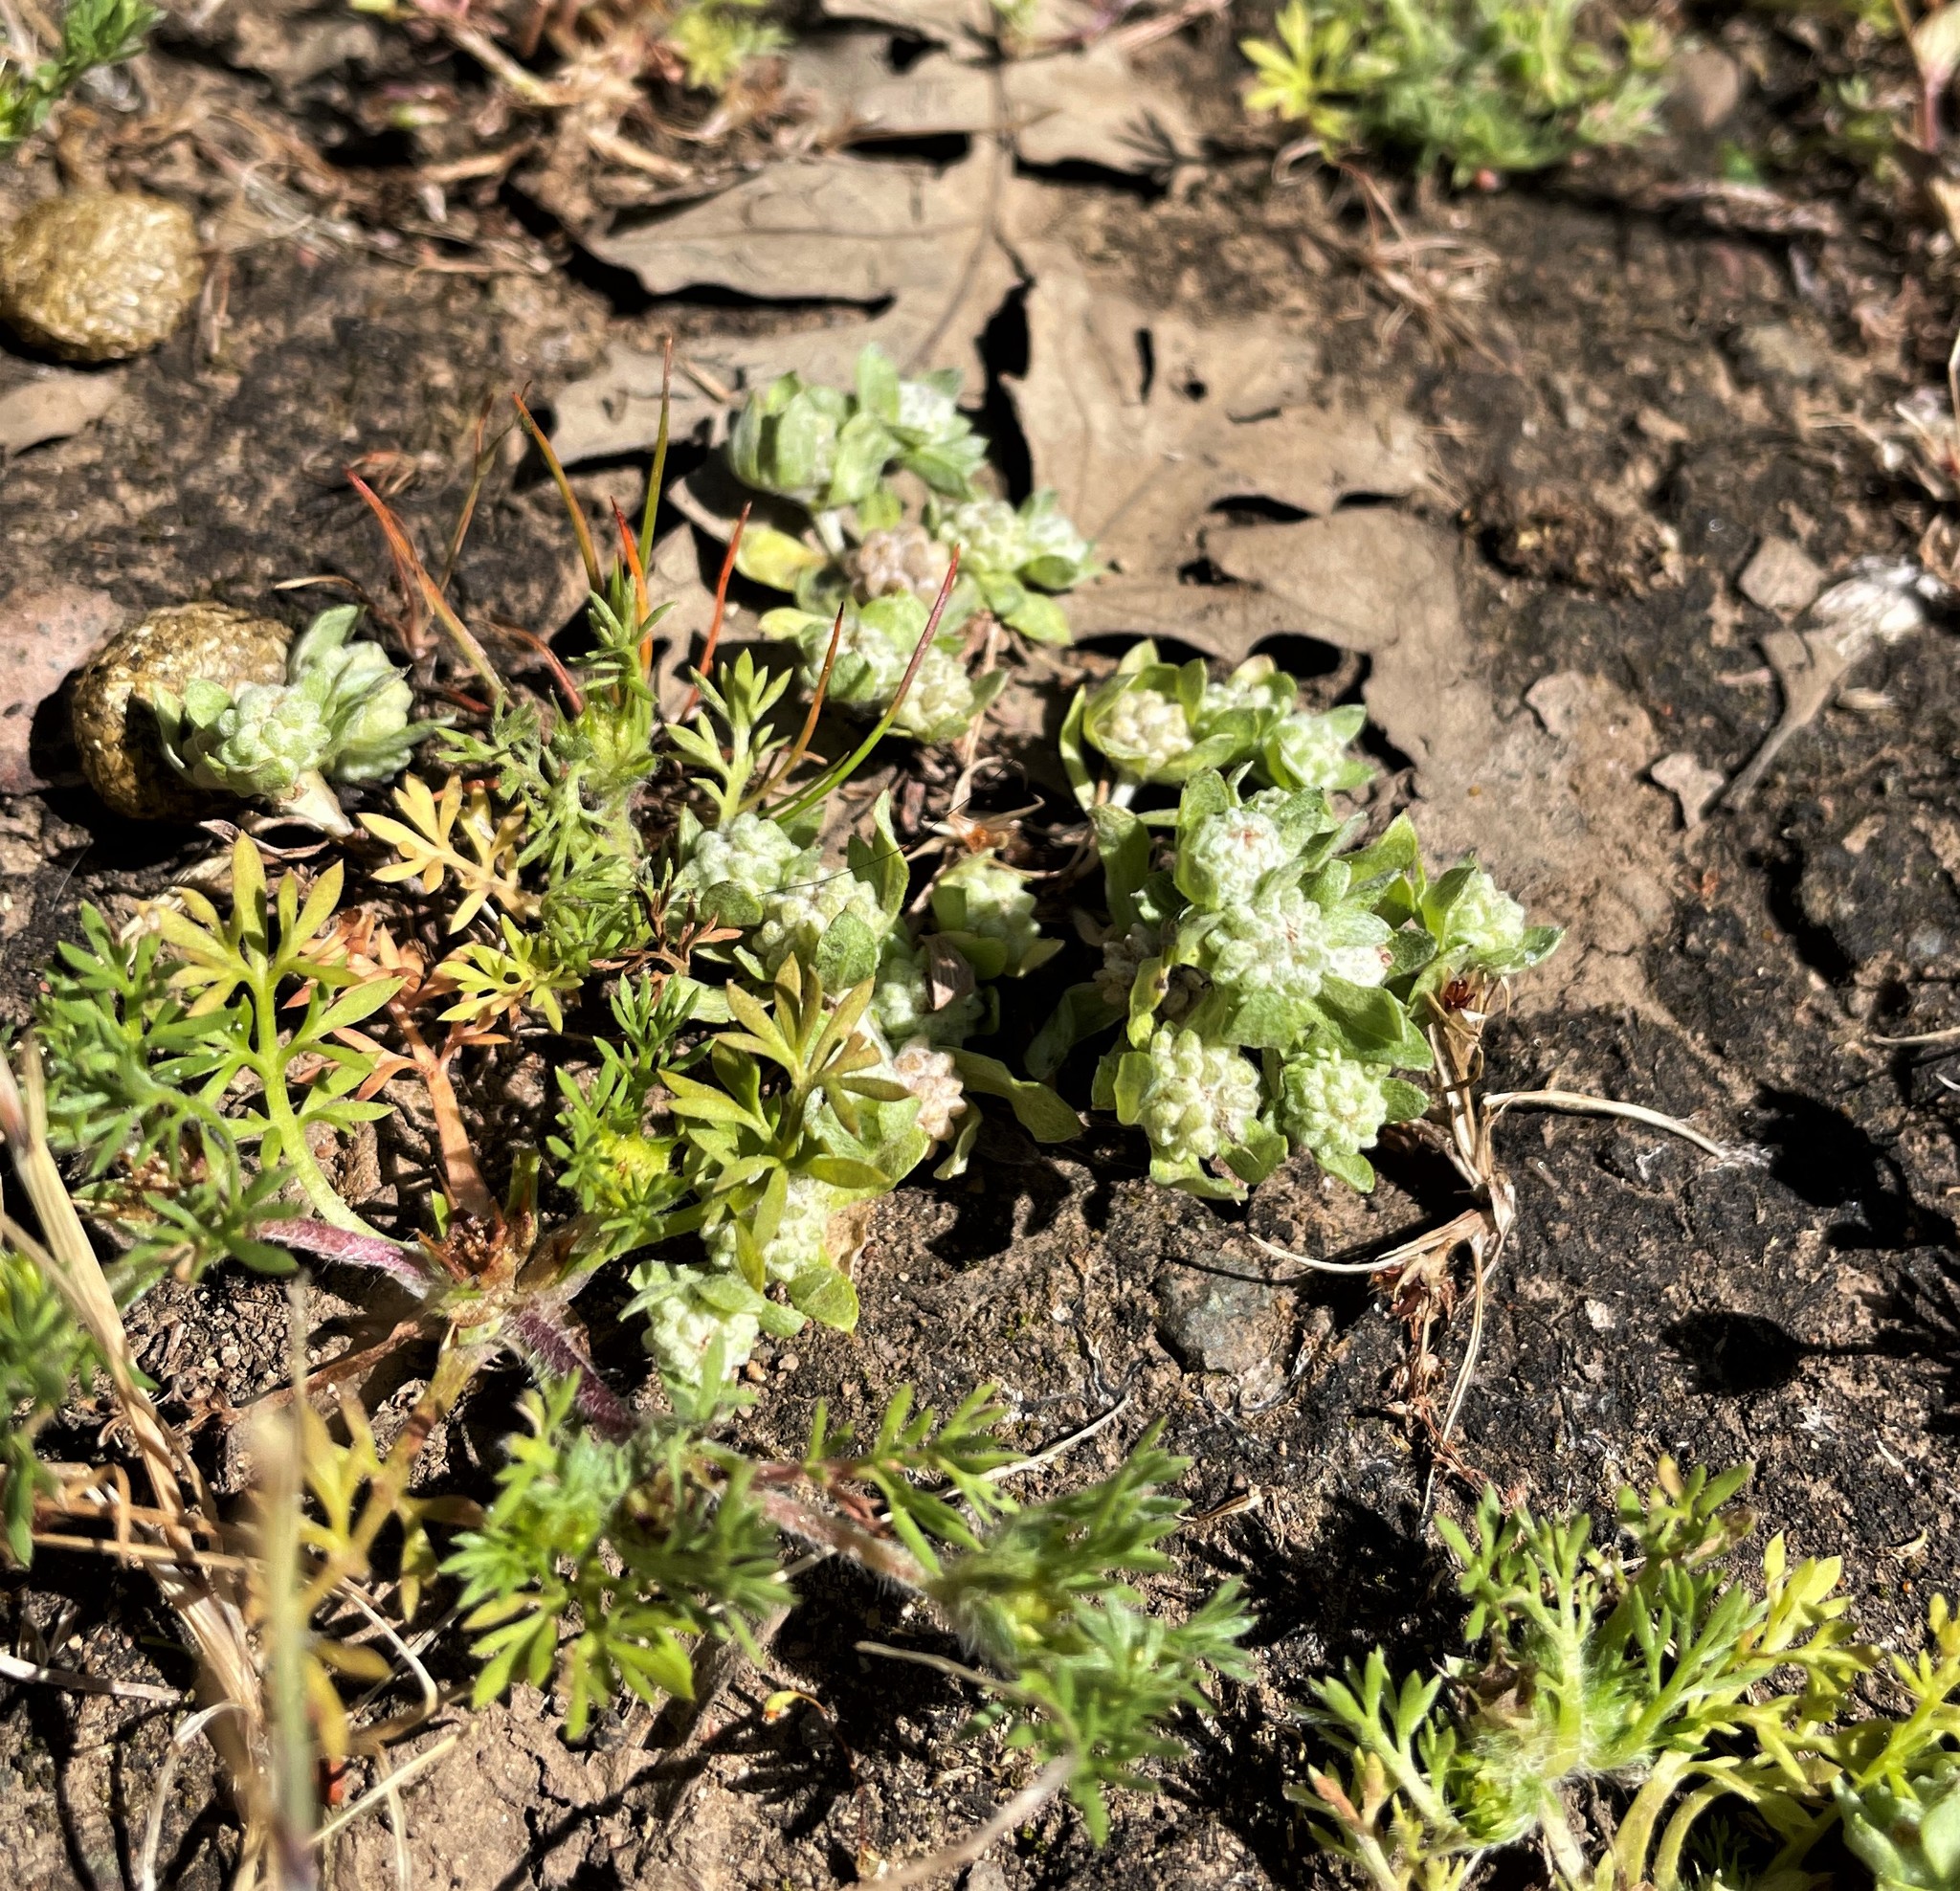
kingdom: Plantae
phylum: Tracheophyta
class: Magnoliopsida
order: Asterales
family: Asteraceae
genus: Psilocarphus
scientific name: Psilocarphus tenellus
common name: Slender woolly-marbles
